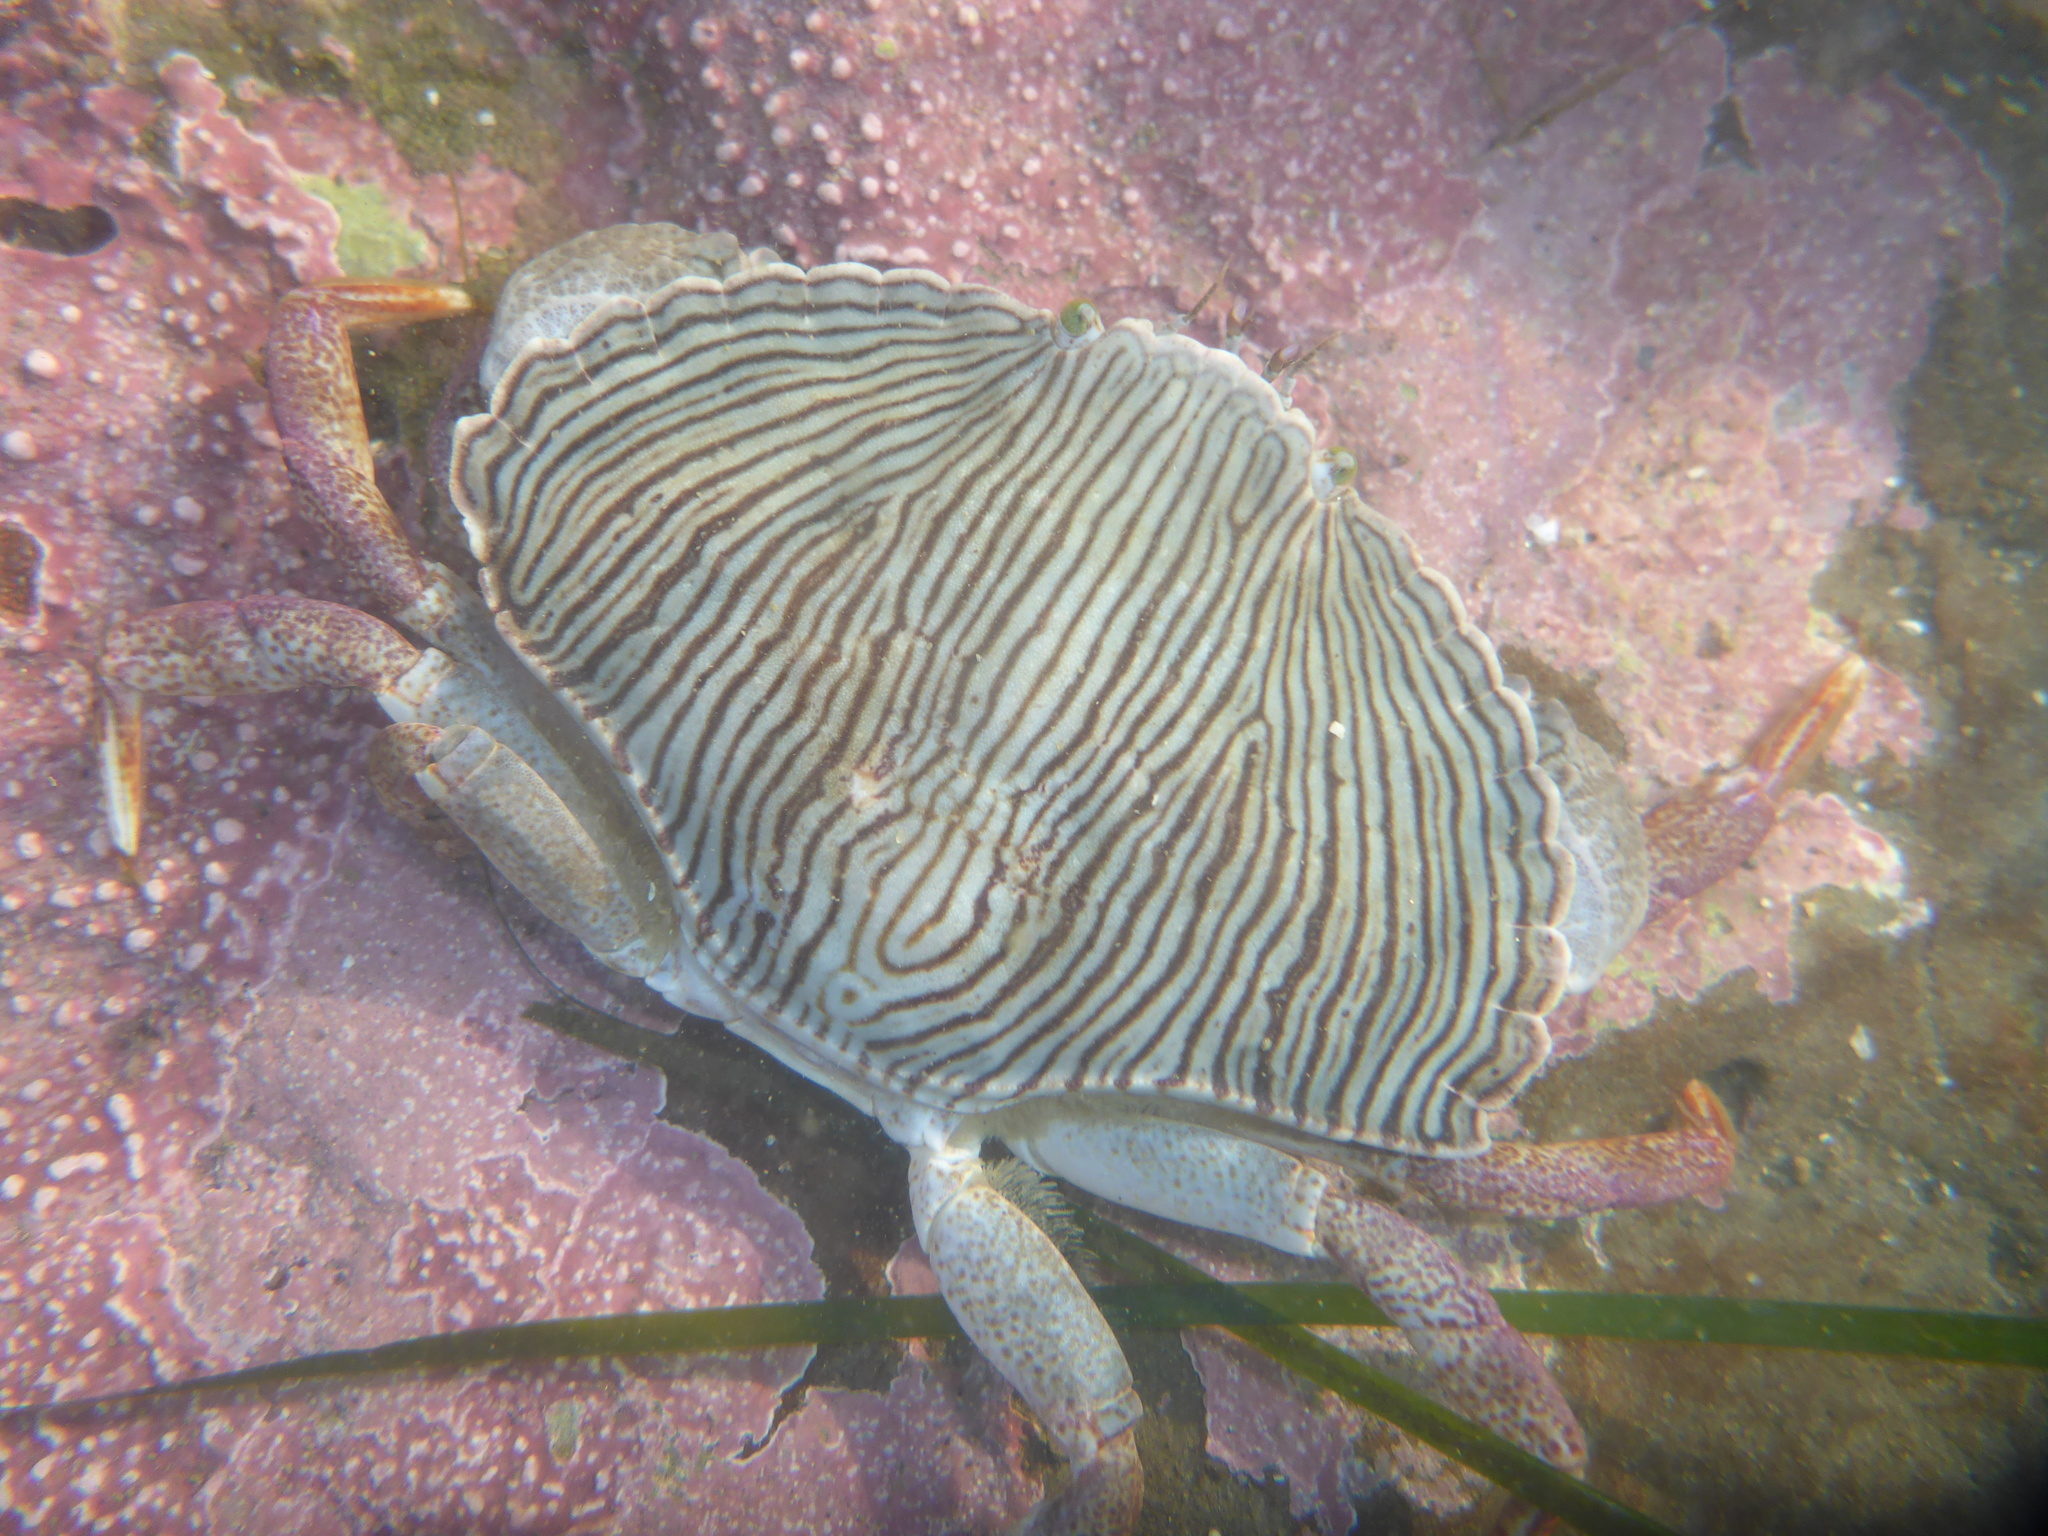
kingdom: Animalia
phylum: Arthropoda
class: Malacostraca
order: Decapoda
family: Cancridae
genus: Cancer
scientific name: Cancer productus
